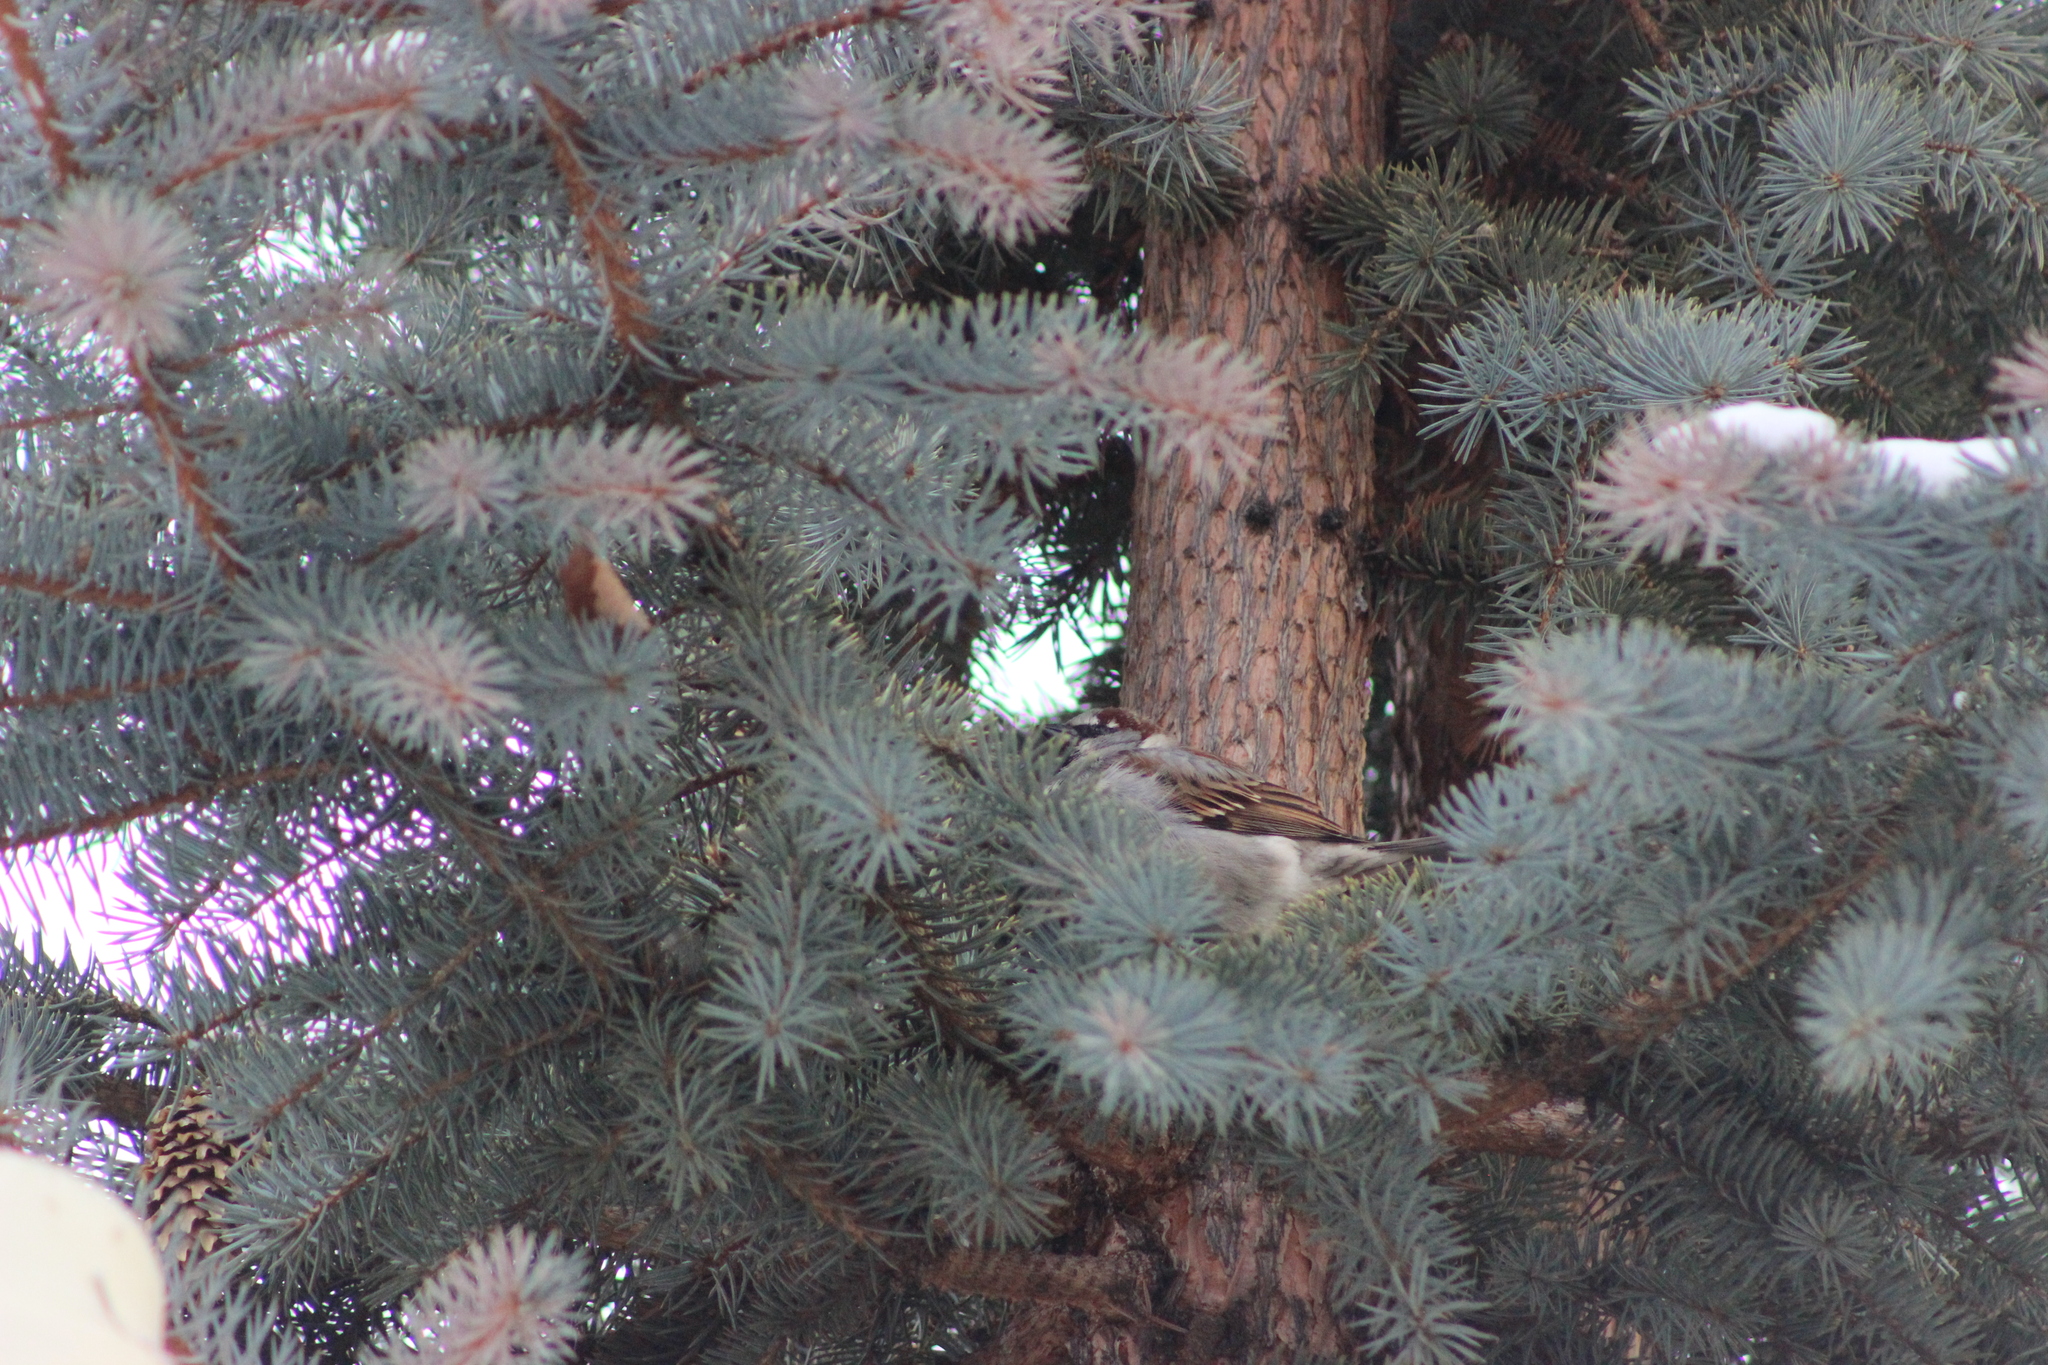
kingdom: Animalia
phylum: Chordata
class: Aves
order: Passeriformes
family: Passeridae
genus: Passer
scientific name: Passer domesticus
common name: House sparrow
